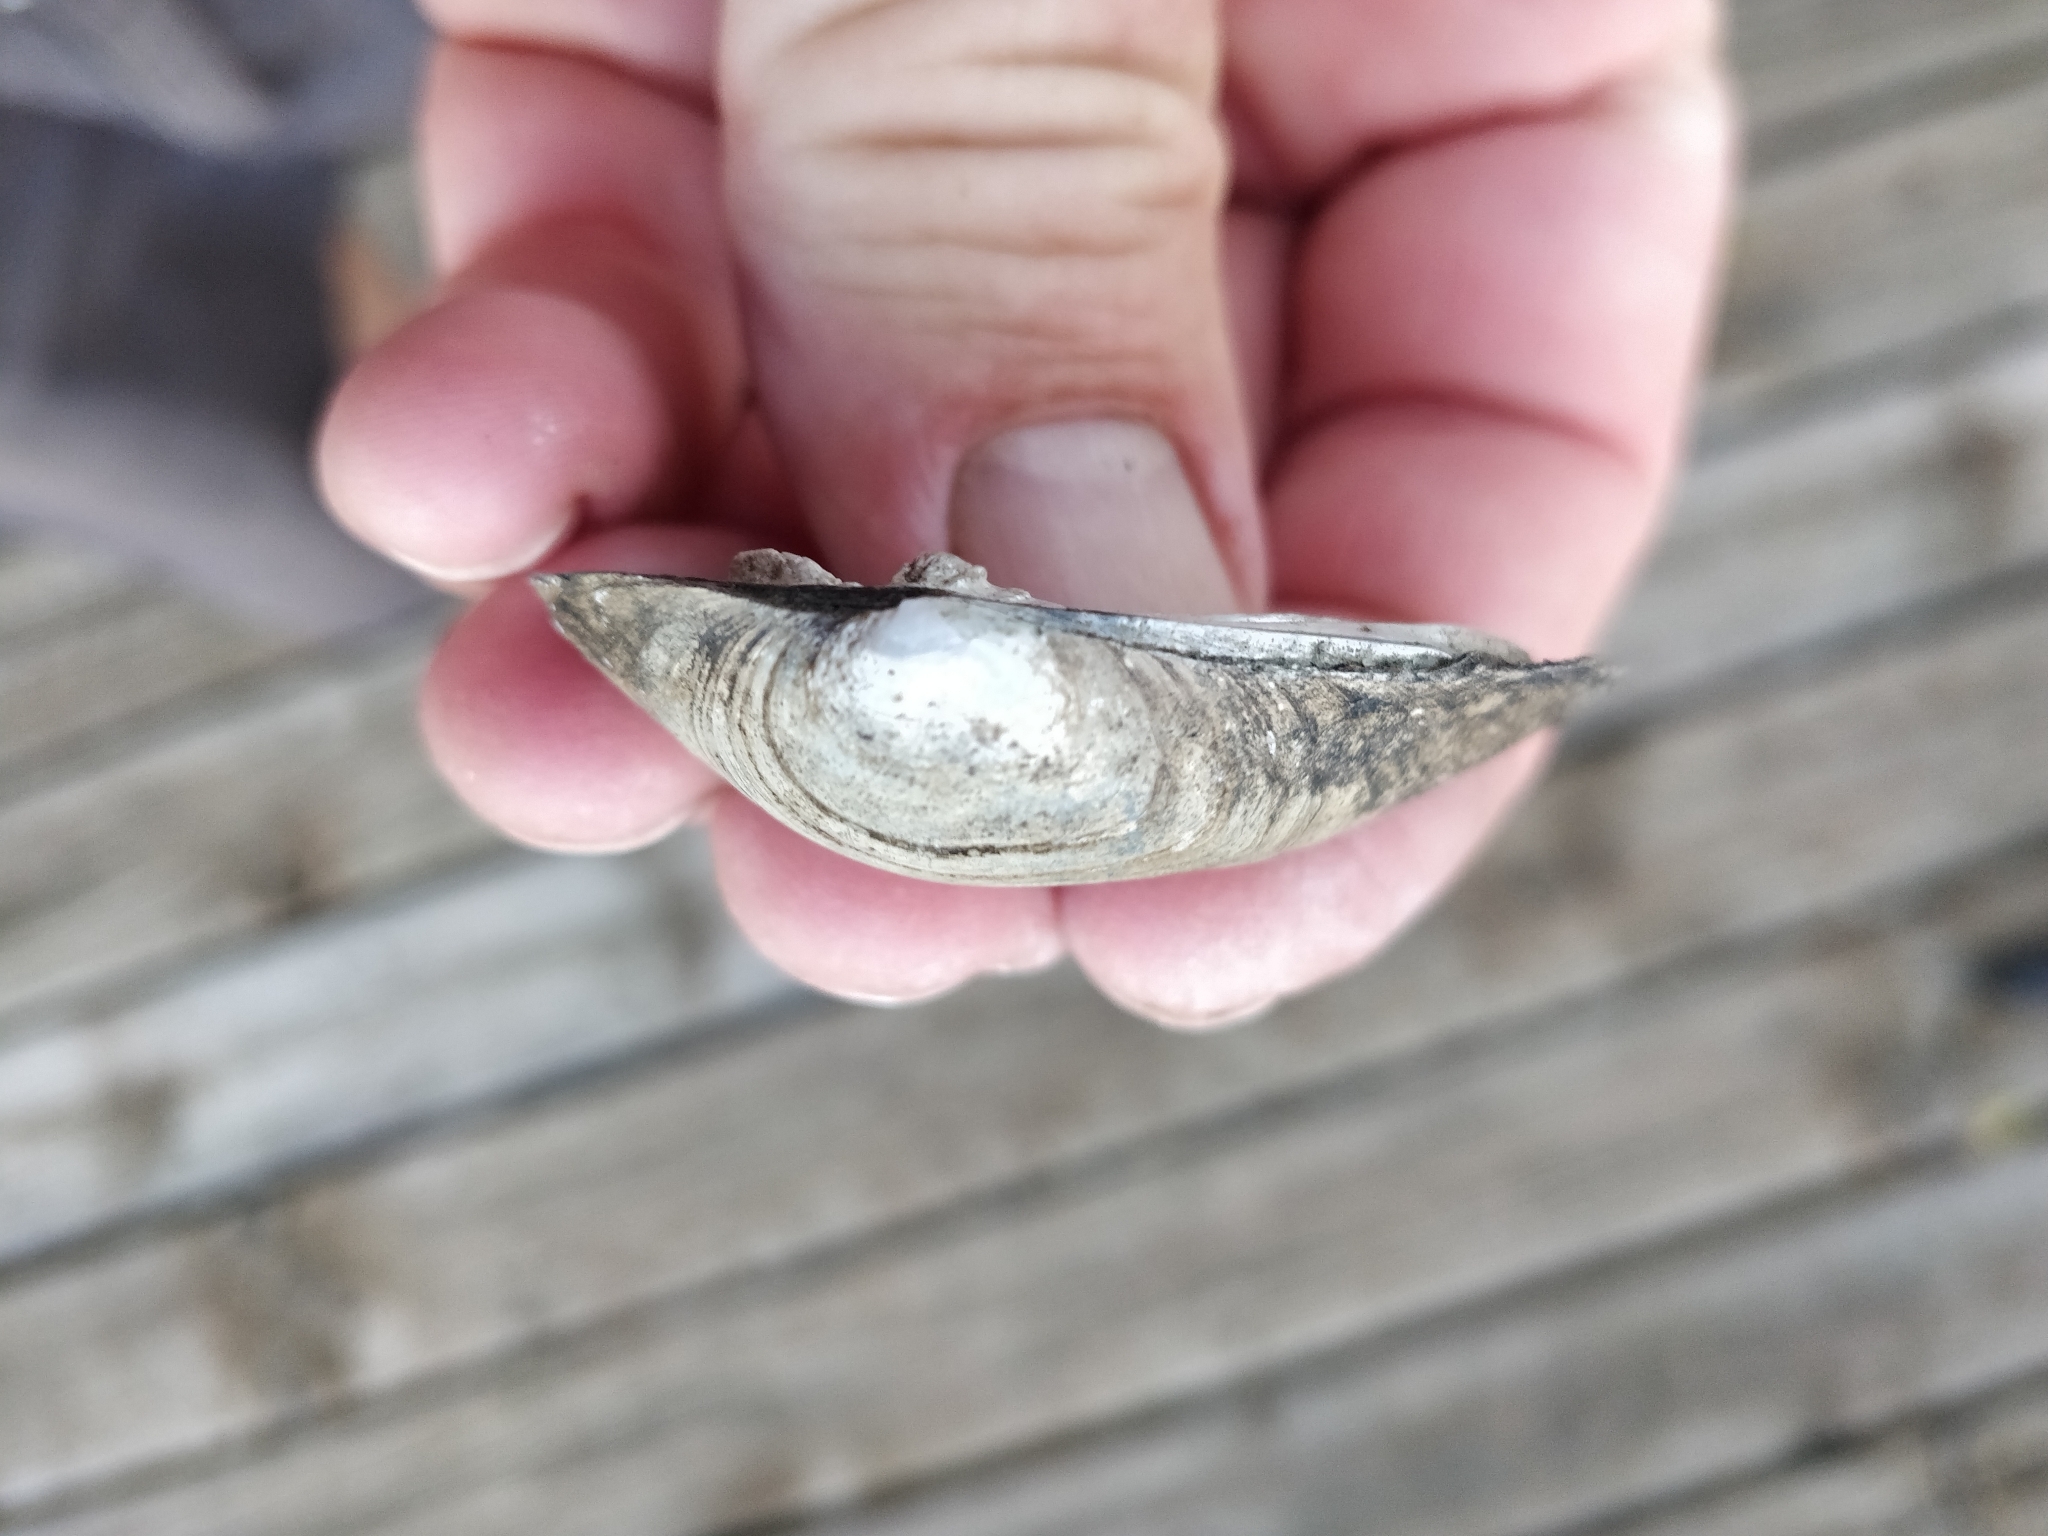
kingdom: Animalia
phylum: Mollusca
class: Bivalvia
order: Unionida
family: Unionidae
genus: Fusconaia
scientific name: Fusconaia flava
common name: Wabash pigtoe
